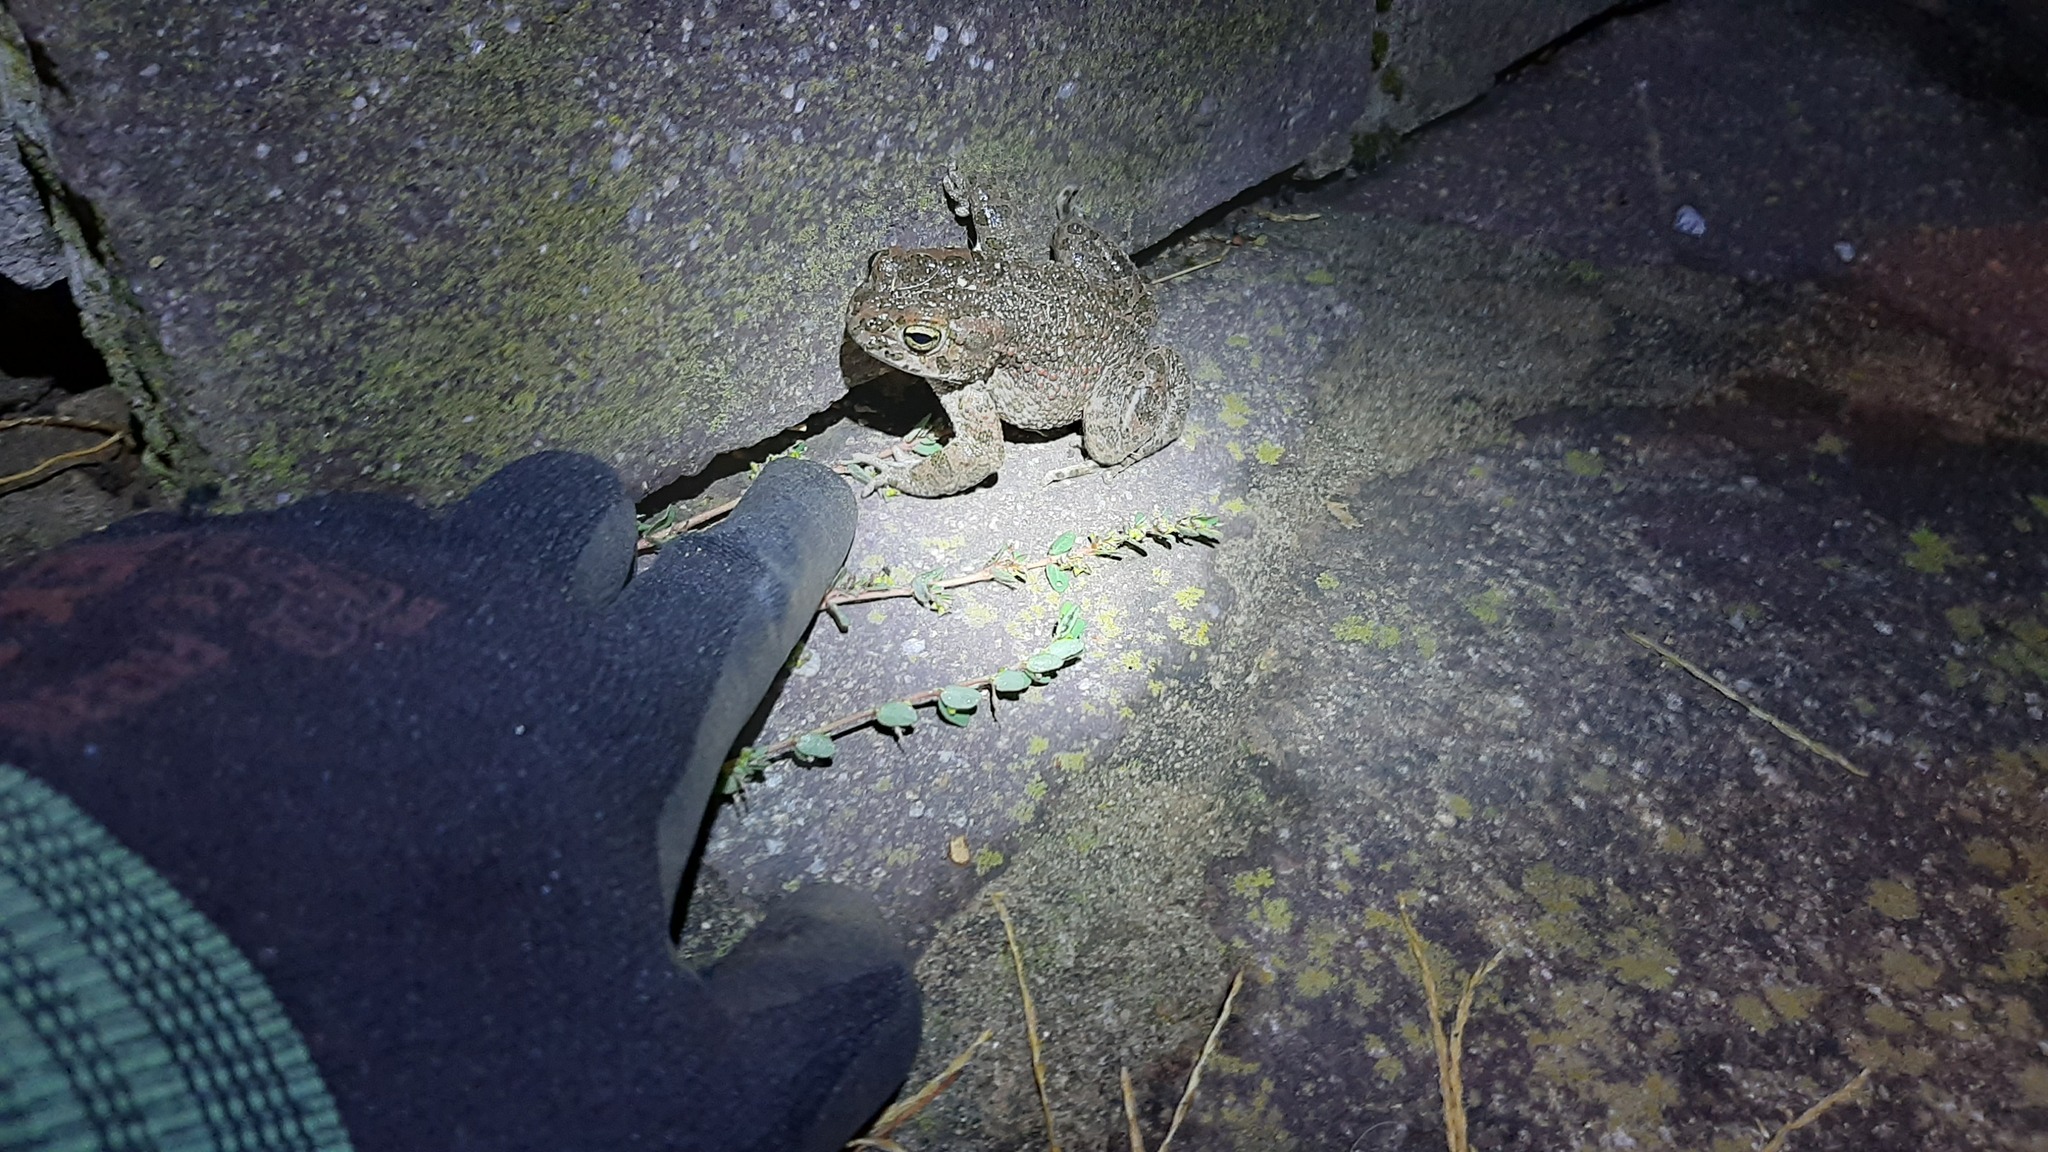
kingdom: Animalia
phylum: Chordata
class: Amphibia
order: Anura
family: Bufonidae
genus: Bufotes
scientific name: Bufotes viridis
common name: European green toad
